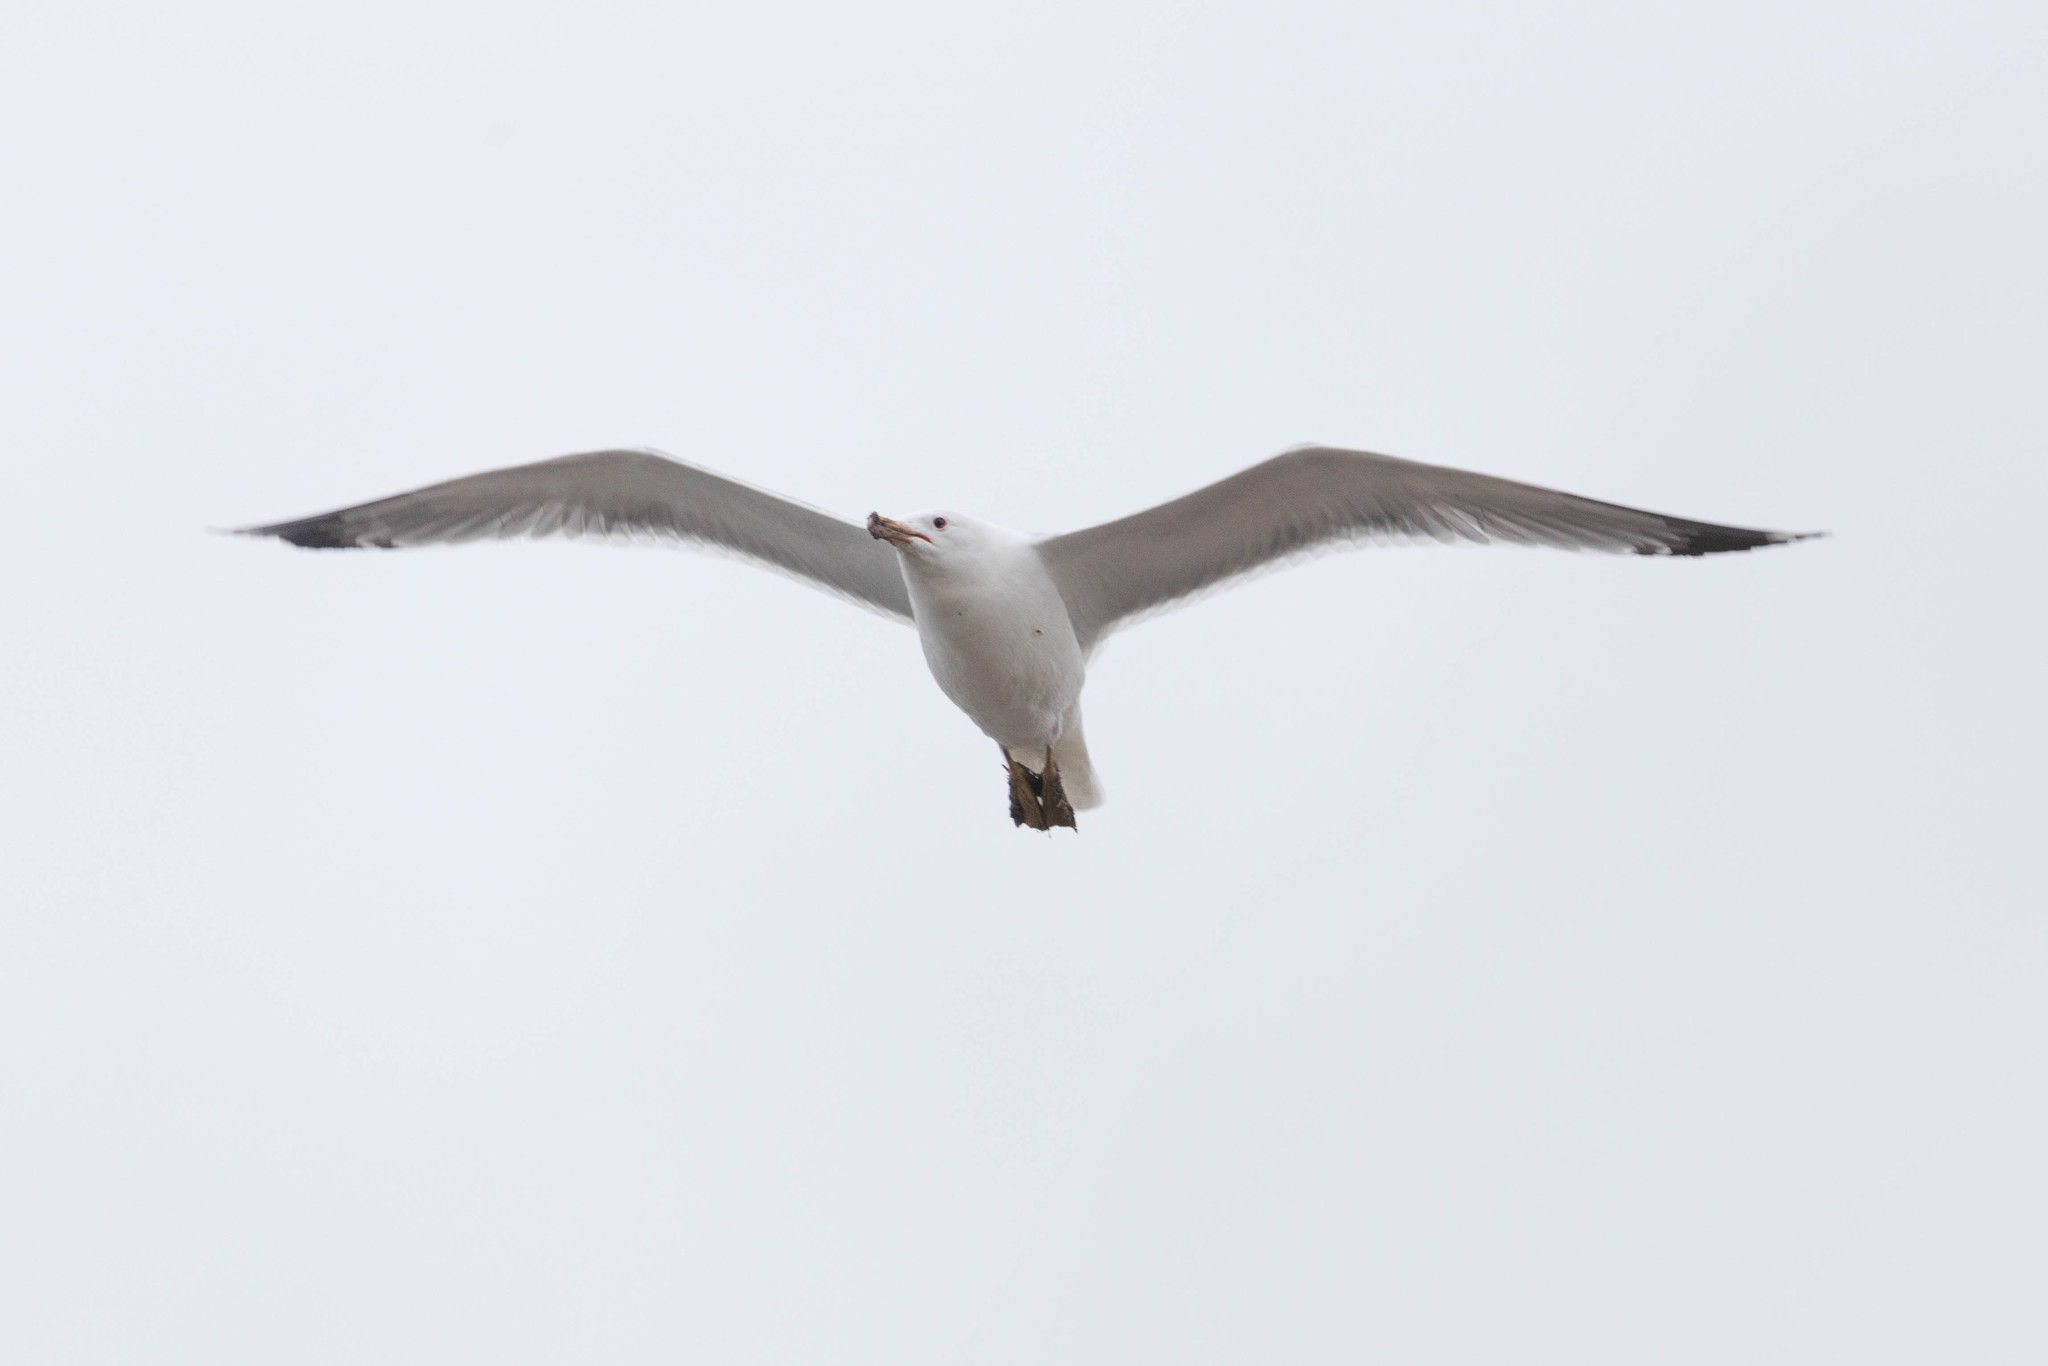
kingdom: Animalia
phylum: Chordata
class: Aves
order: Charadriiformes
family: Laridae
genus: Larus
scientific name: Larus californicus
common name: California gull
